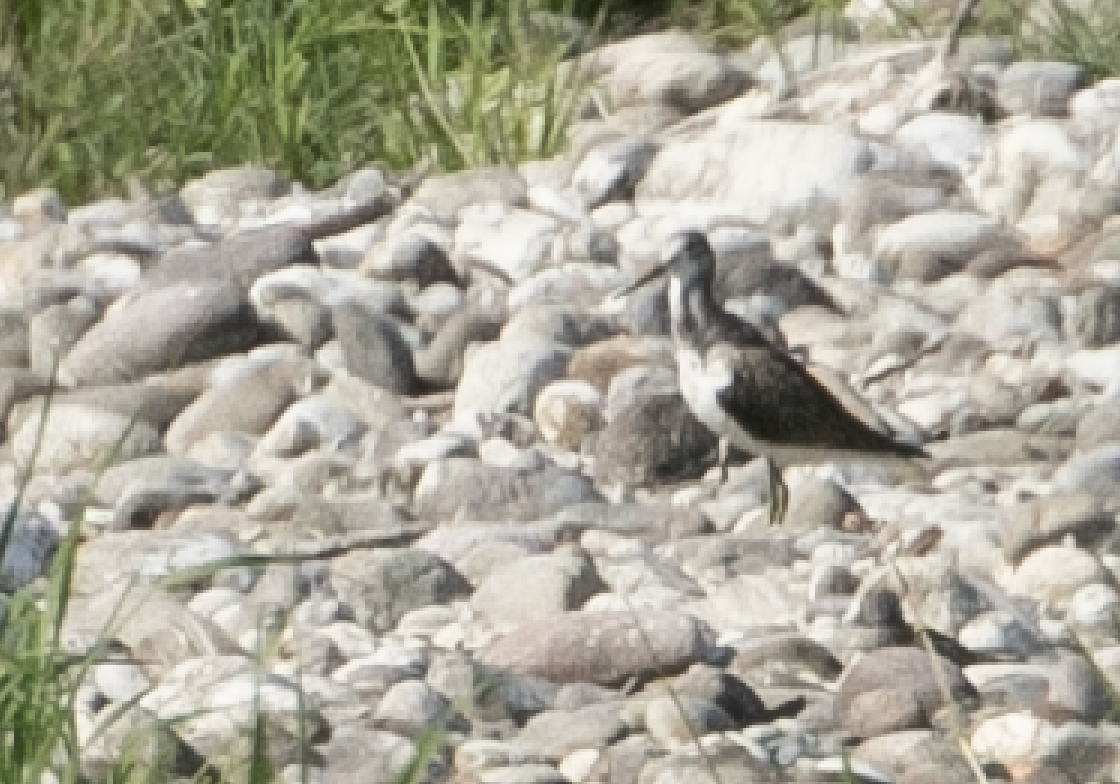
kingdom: Animalia
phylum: Chordata
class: Aves
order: Charadriiformes
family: Scolopacidae
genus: Tringa
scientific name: Tringa nebularia
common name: Common greenshank
